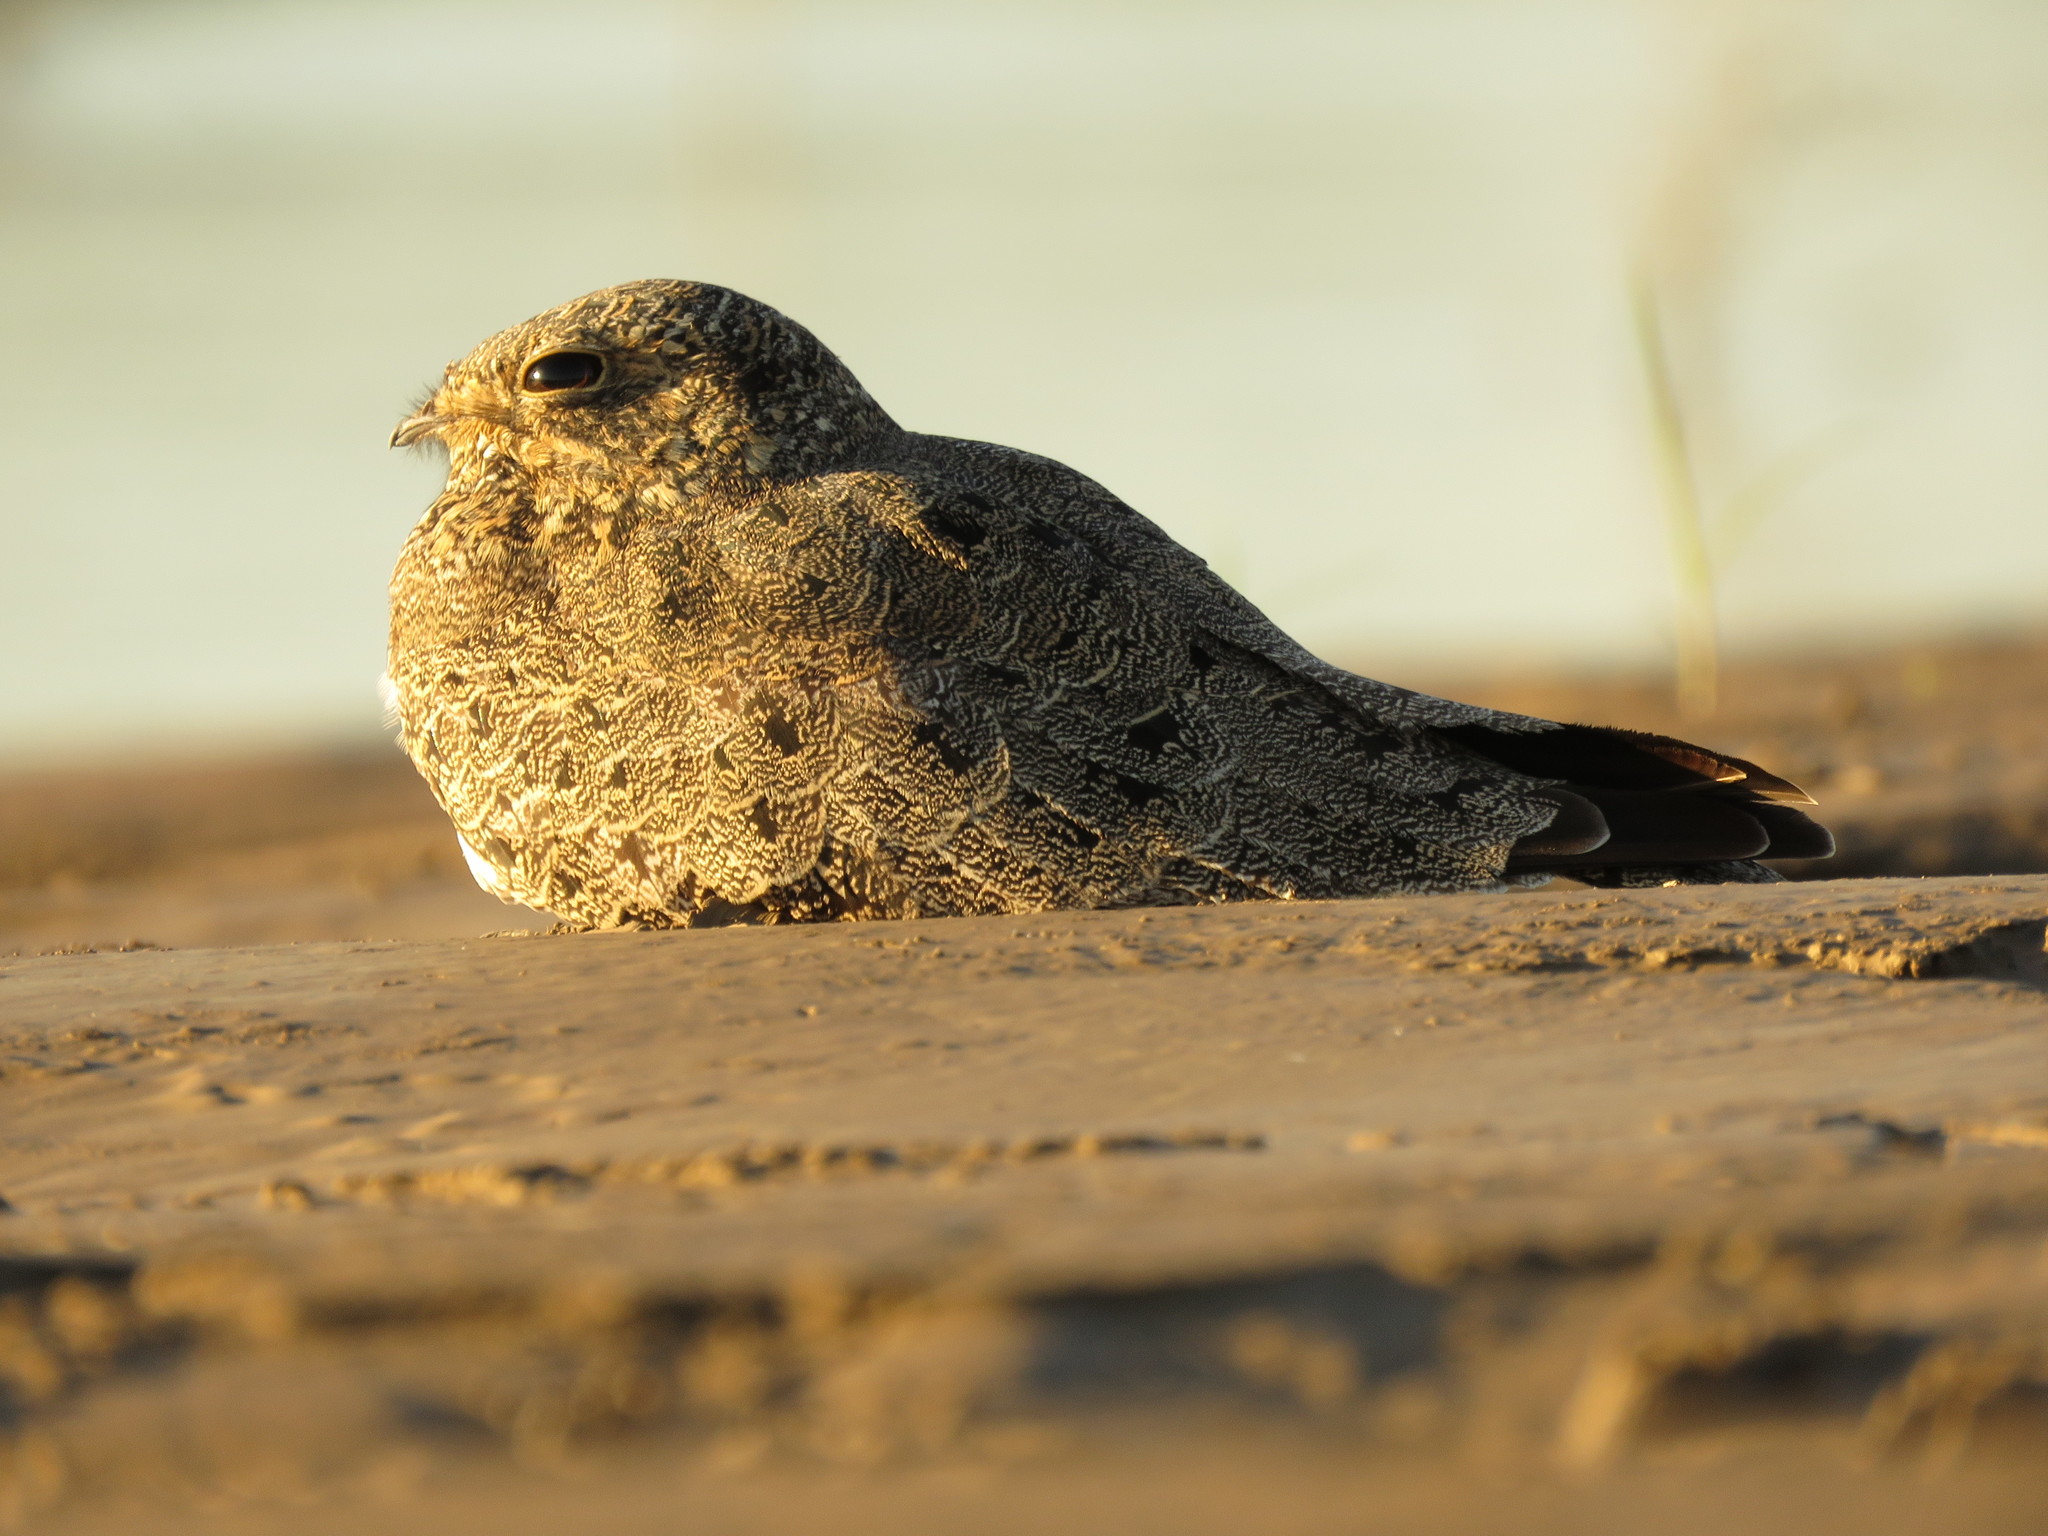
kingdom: Animalia
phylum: Chordata
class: Aves
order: Caprimulgiformes
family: Caprimulgidae
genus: Chordeiles
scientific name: Chordeiles nacunda
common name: Nacunda nighthawk
